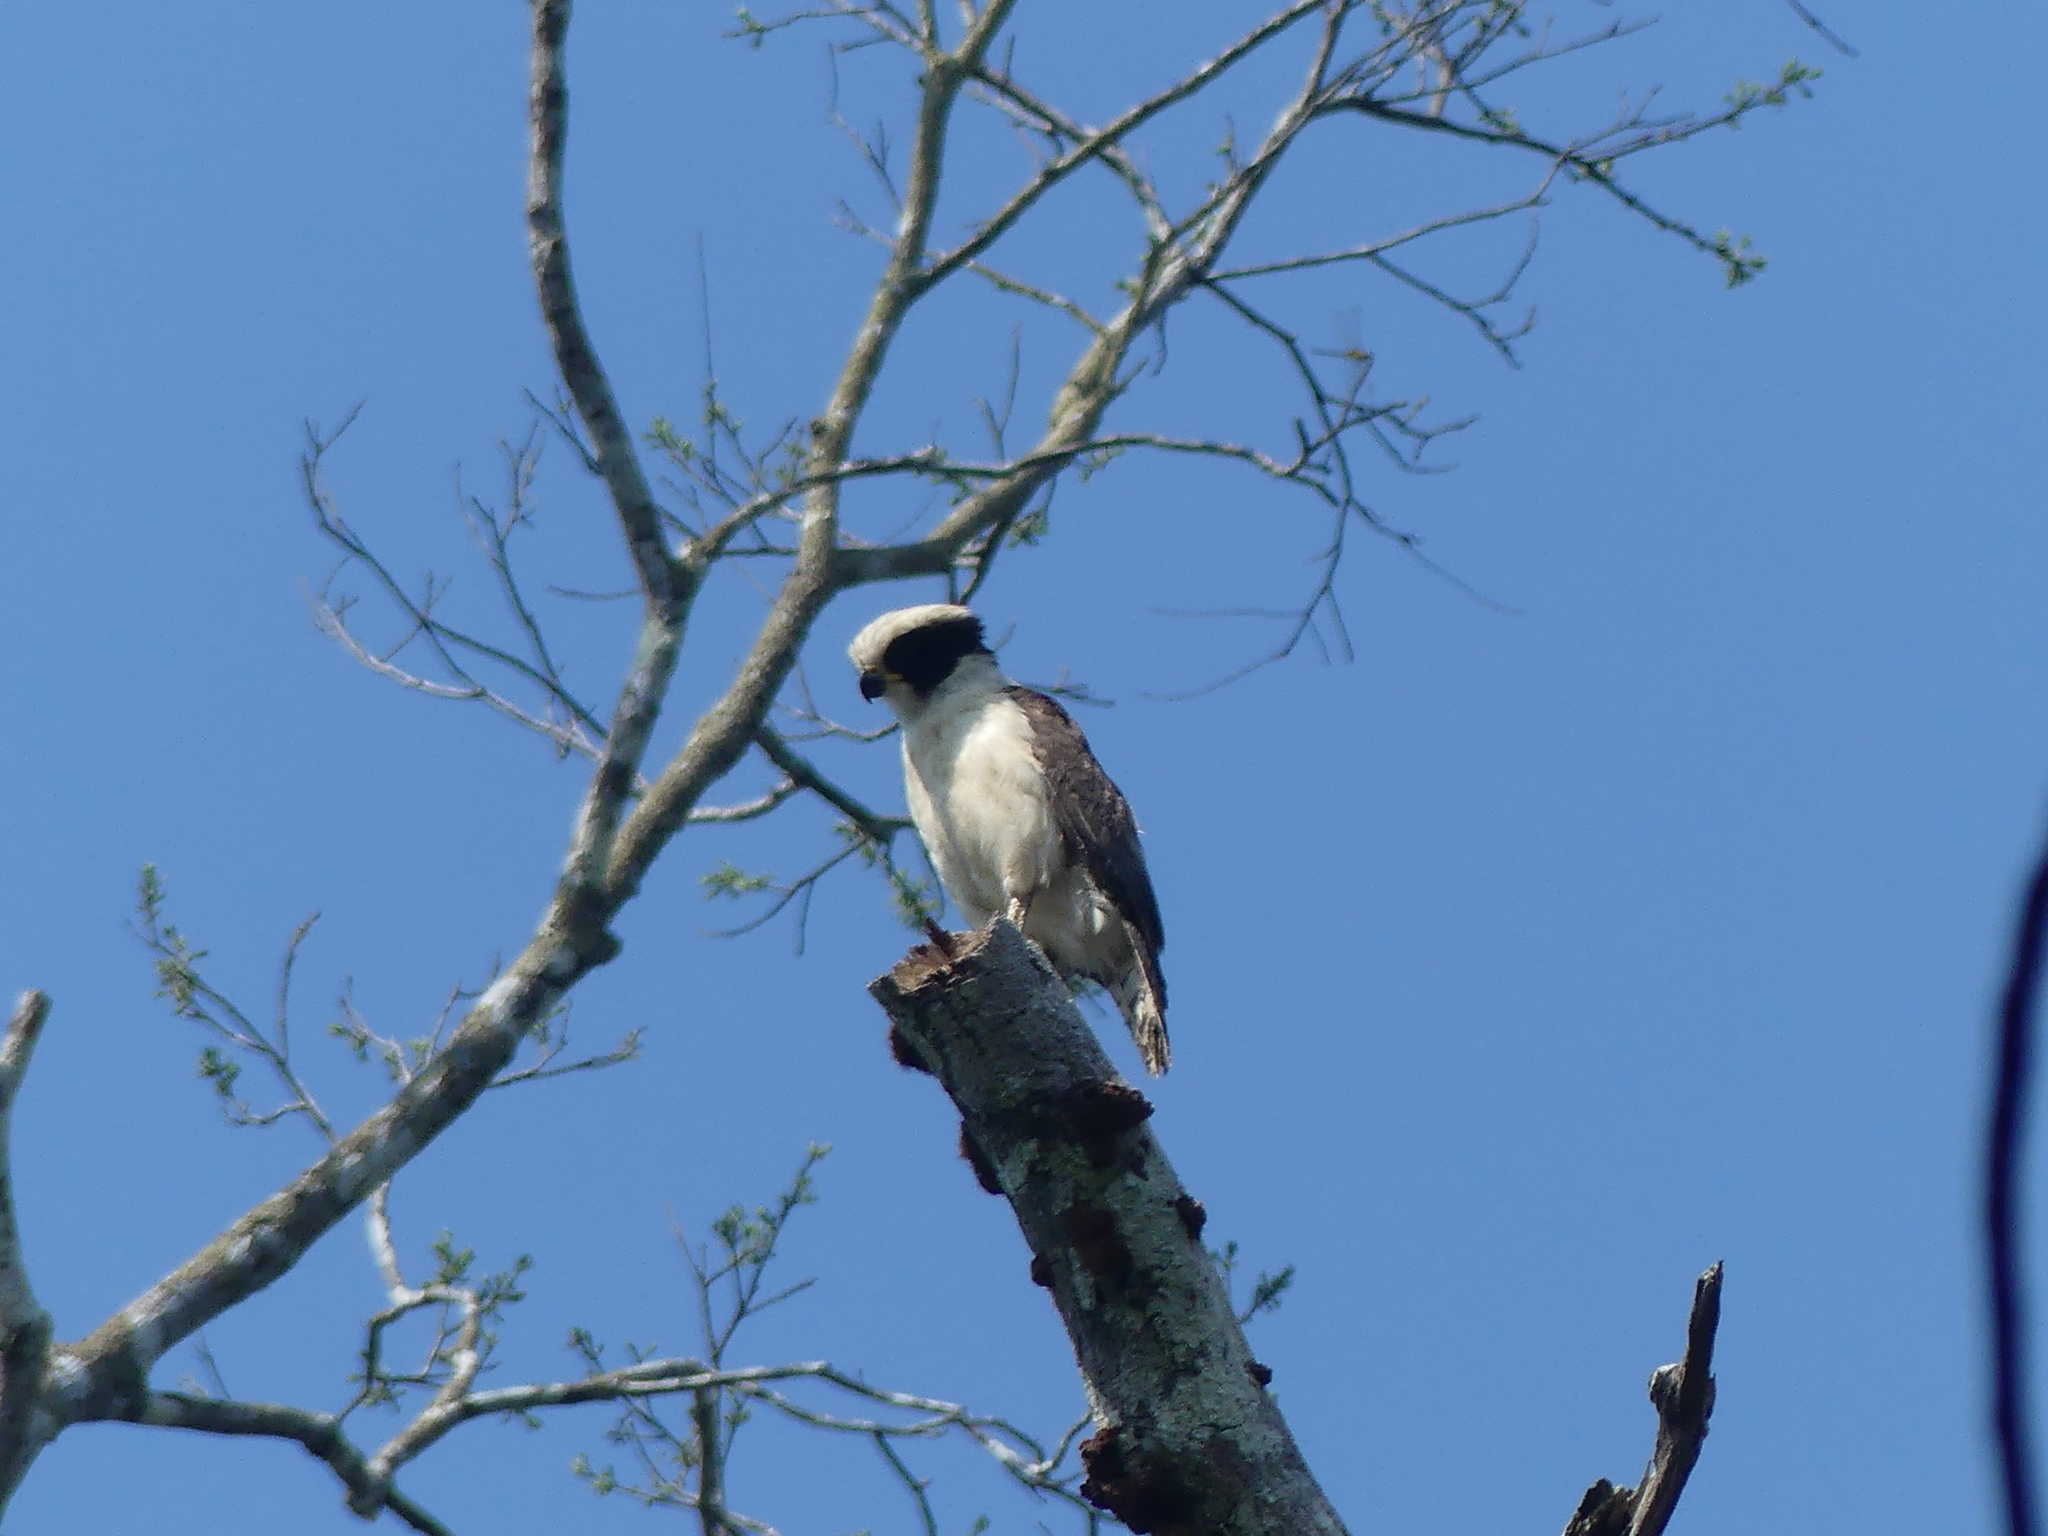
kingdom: Animalia
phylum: Chordata
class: Aves
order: Falconiformes
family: Falconidae
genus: Herpetotheres
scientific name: Herpetotheres cachinnans
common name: Laughing falcon
